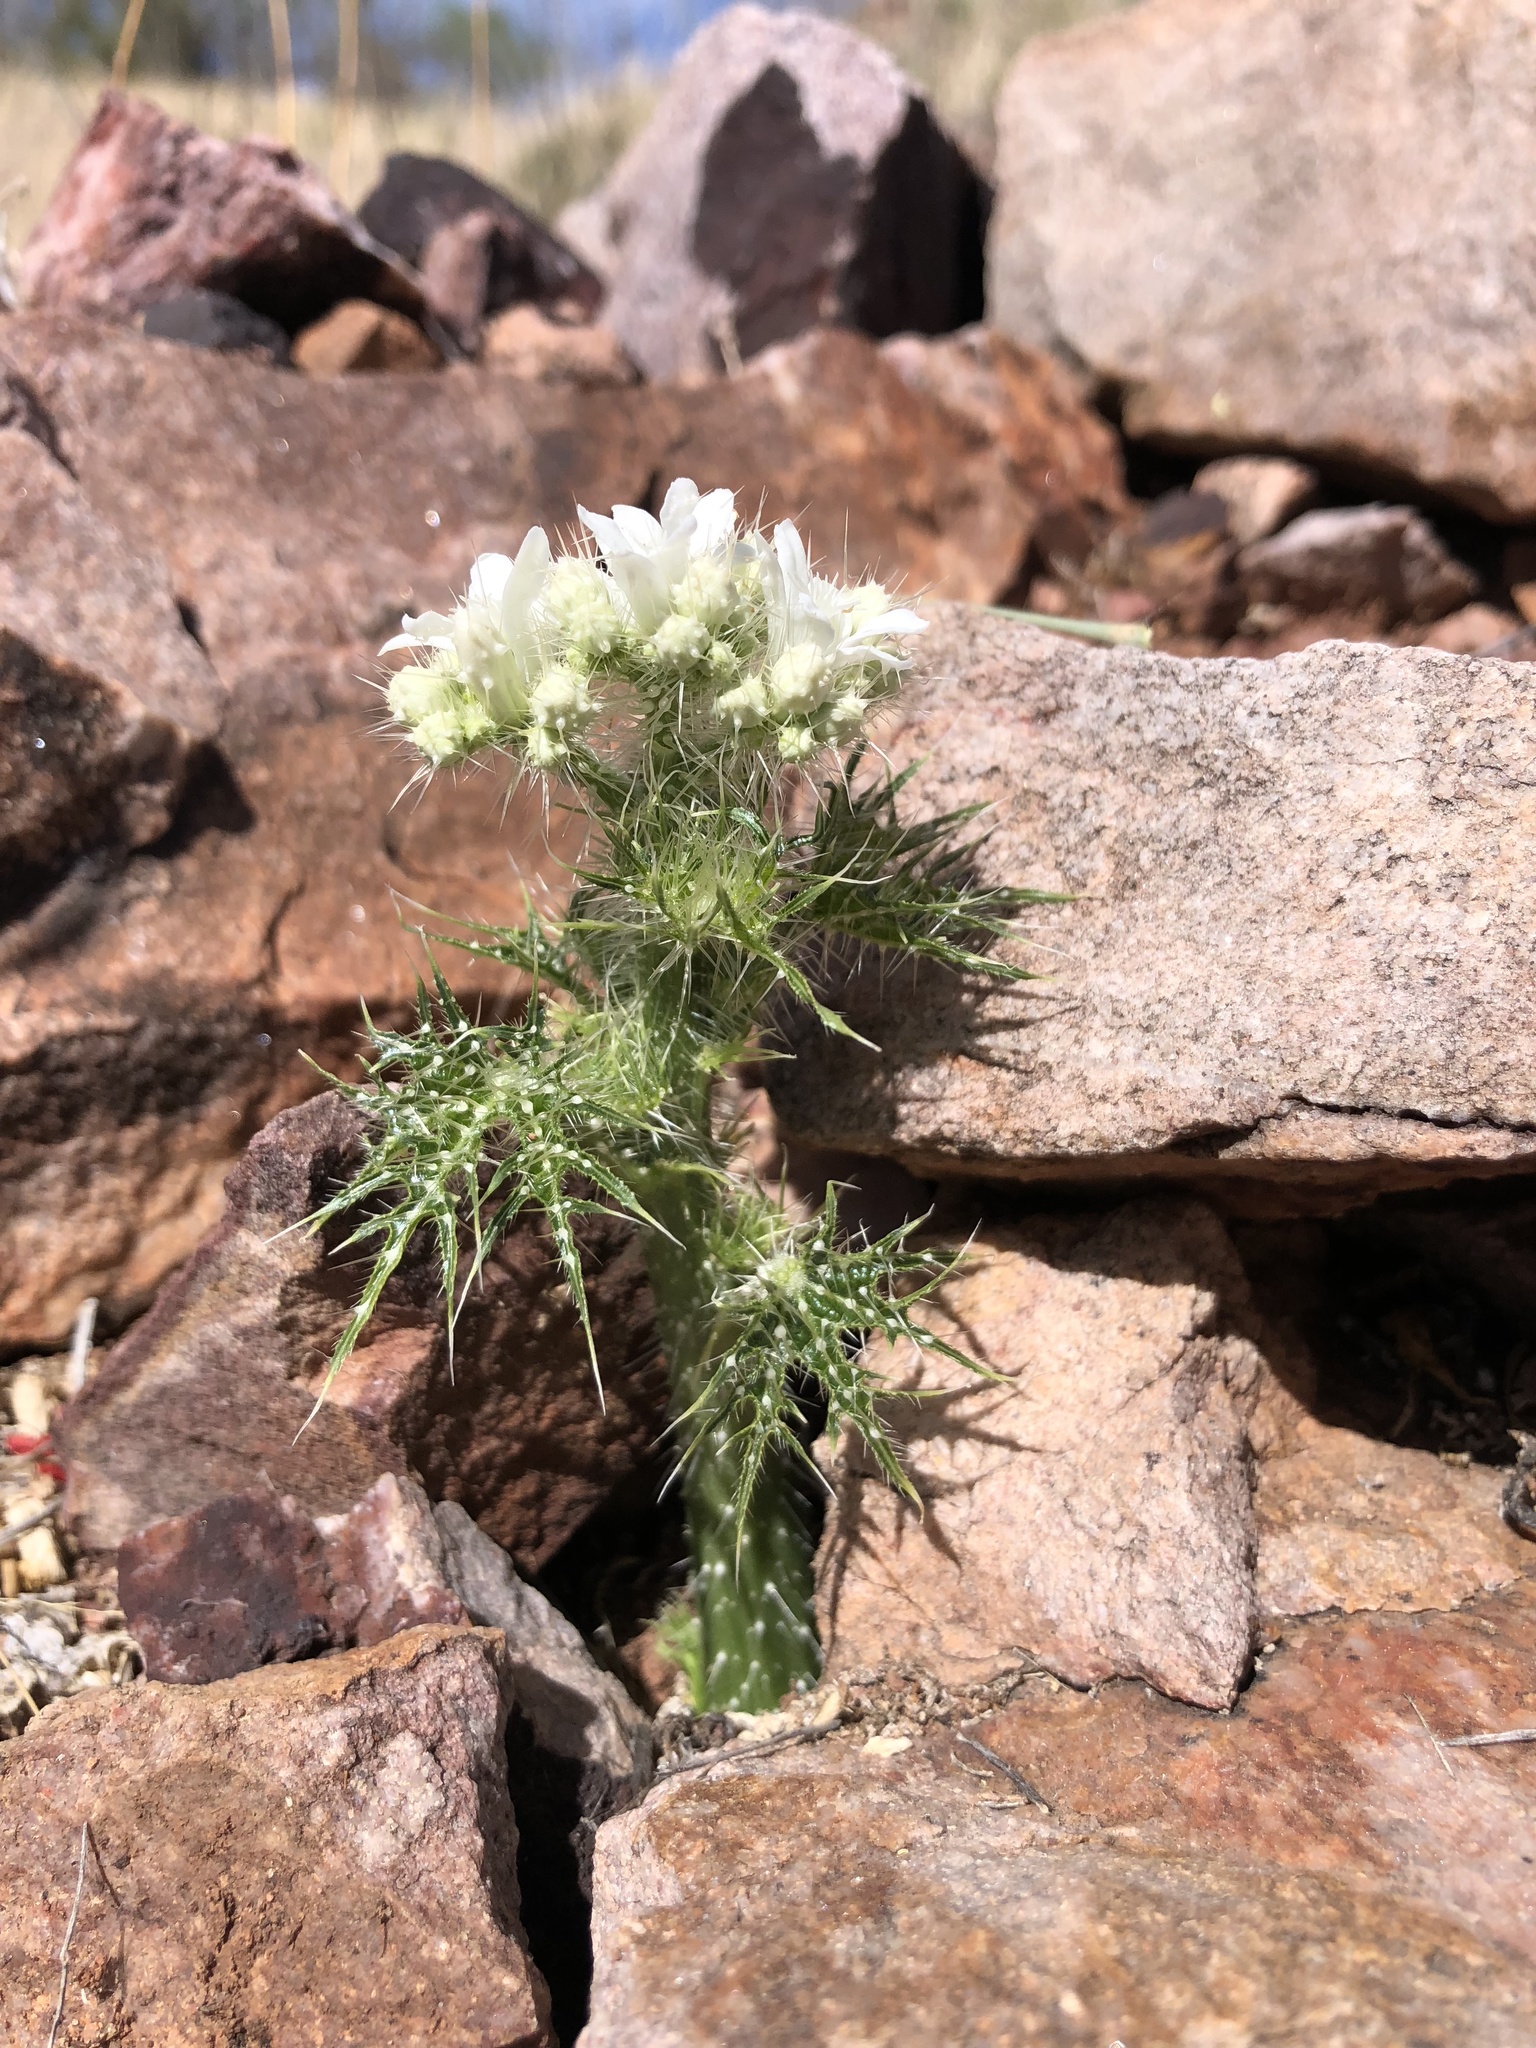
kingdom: Plantae
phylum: Tracheophyta
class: Magnoliopsida
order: Malpighiales
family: Euphorbiaceae
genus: Cnidoscolus
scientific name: Cnidoscolus angustidens
